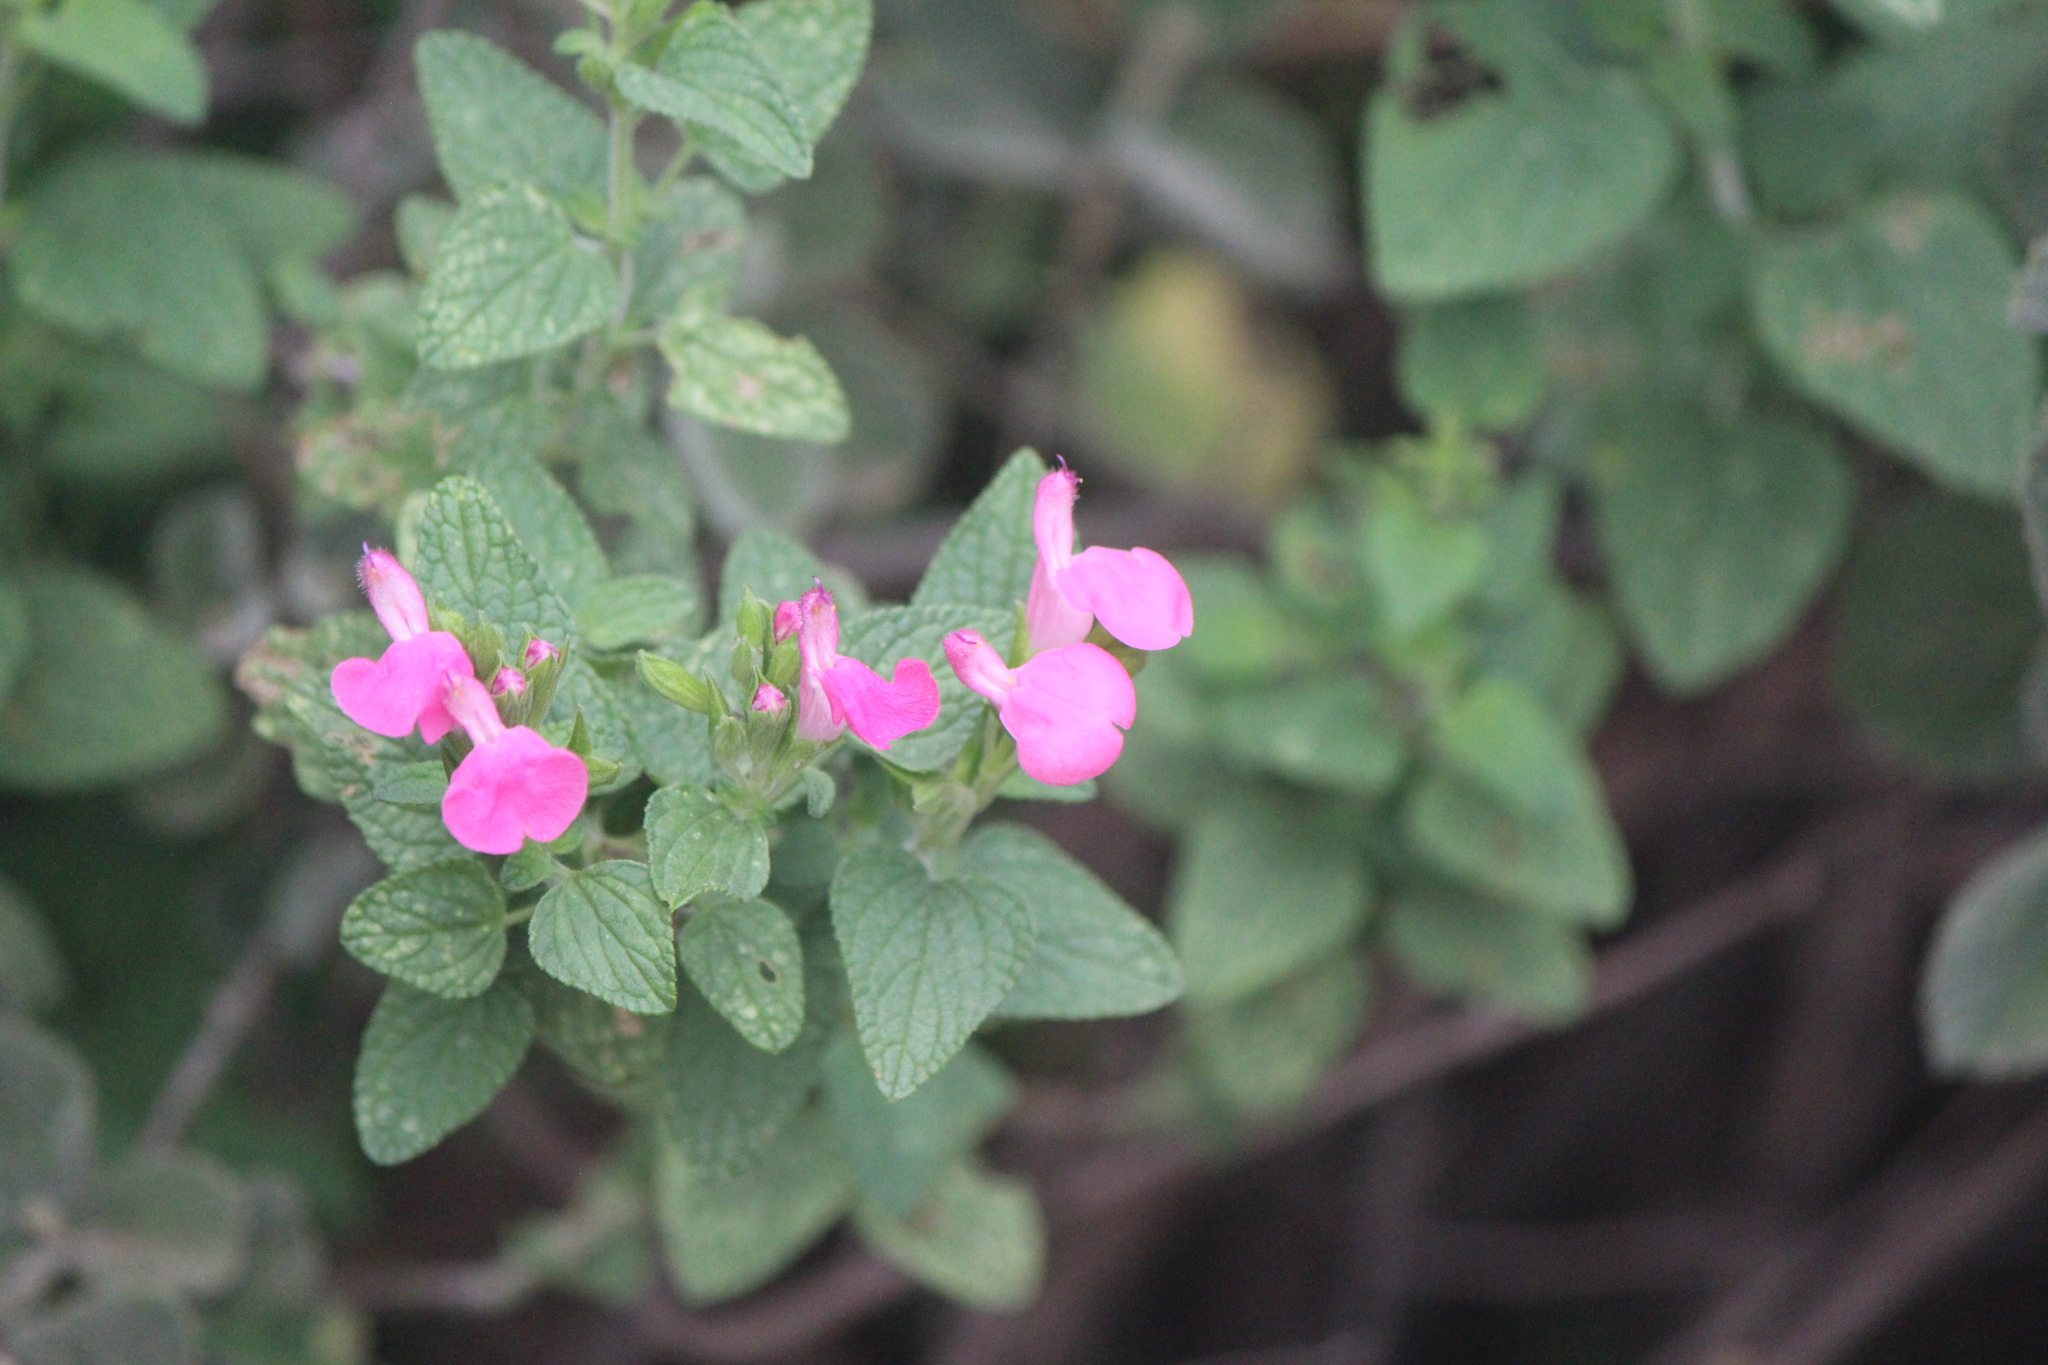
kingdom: Plantae
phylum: Tracheophyta
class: Magnoliopsida
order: Lamiales
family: Lamiaceae
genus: Salvia
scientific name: Salvia microphylla
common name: Baby sage
